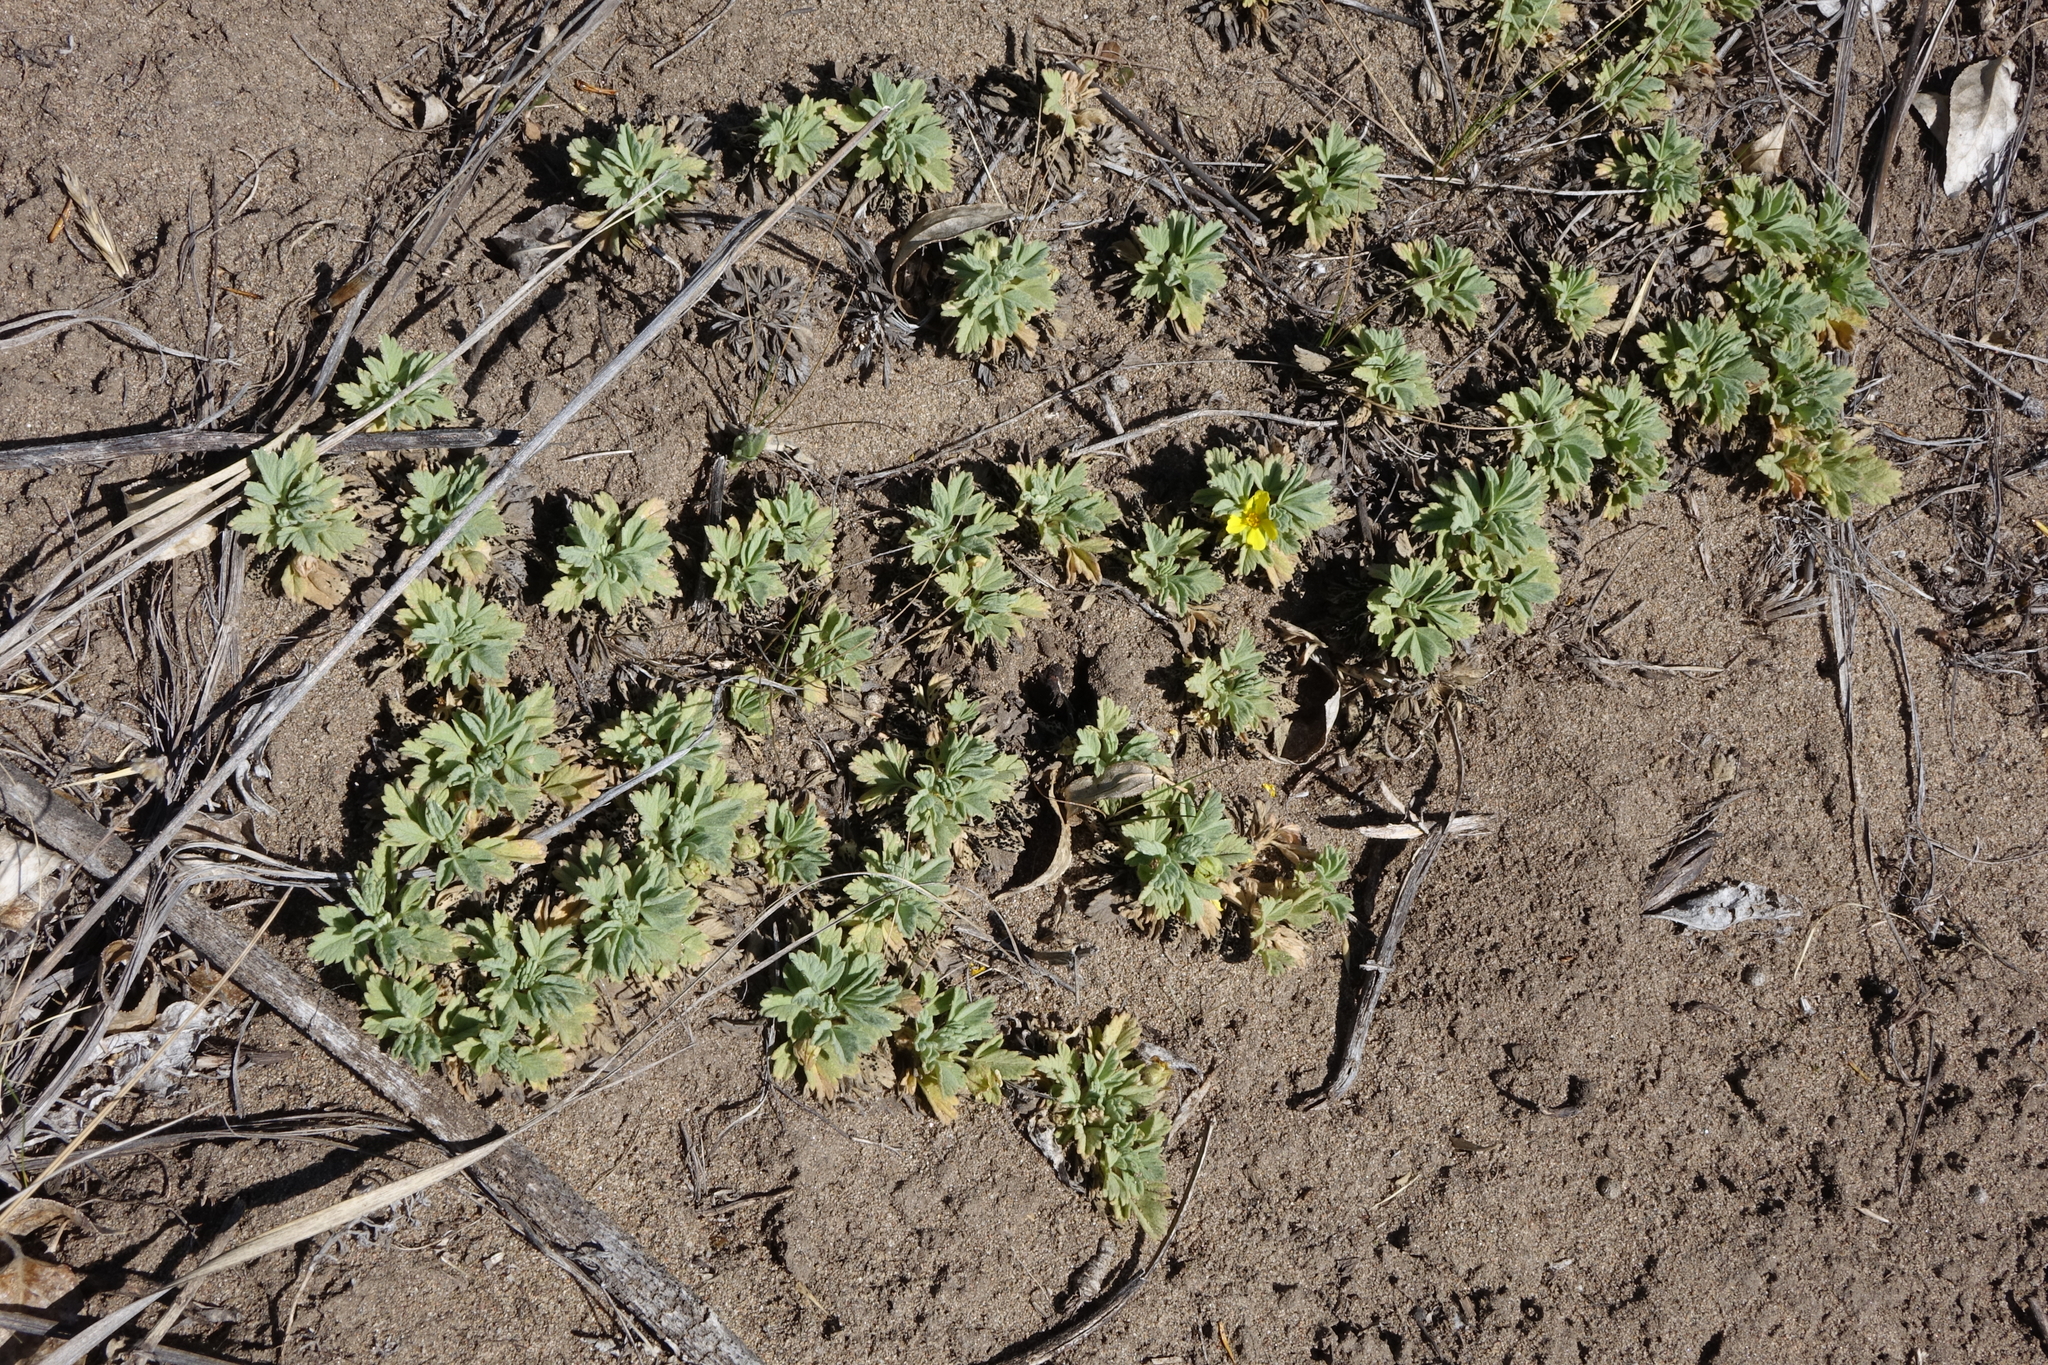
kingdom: Plantae
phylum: Tracheophyta
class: Magnoliopsida
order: Rosales
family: Rosaceae
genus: Potentilla
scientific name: Potentilla acaulis
